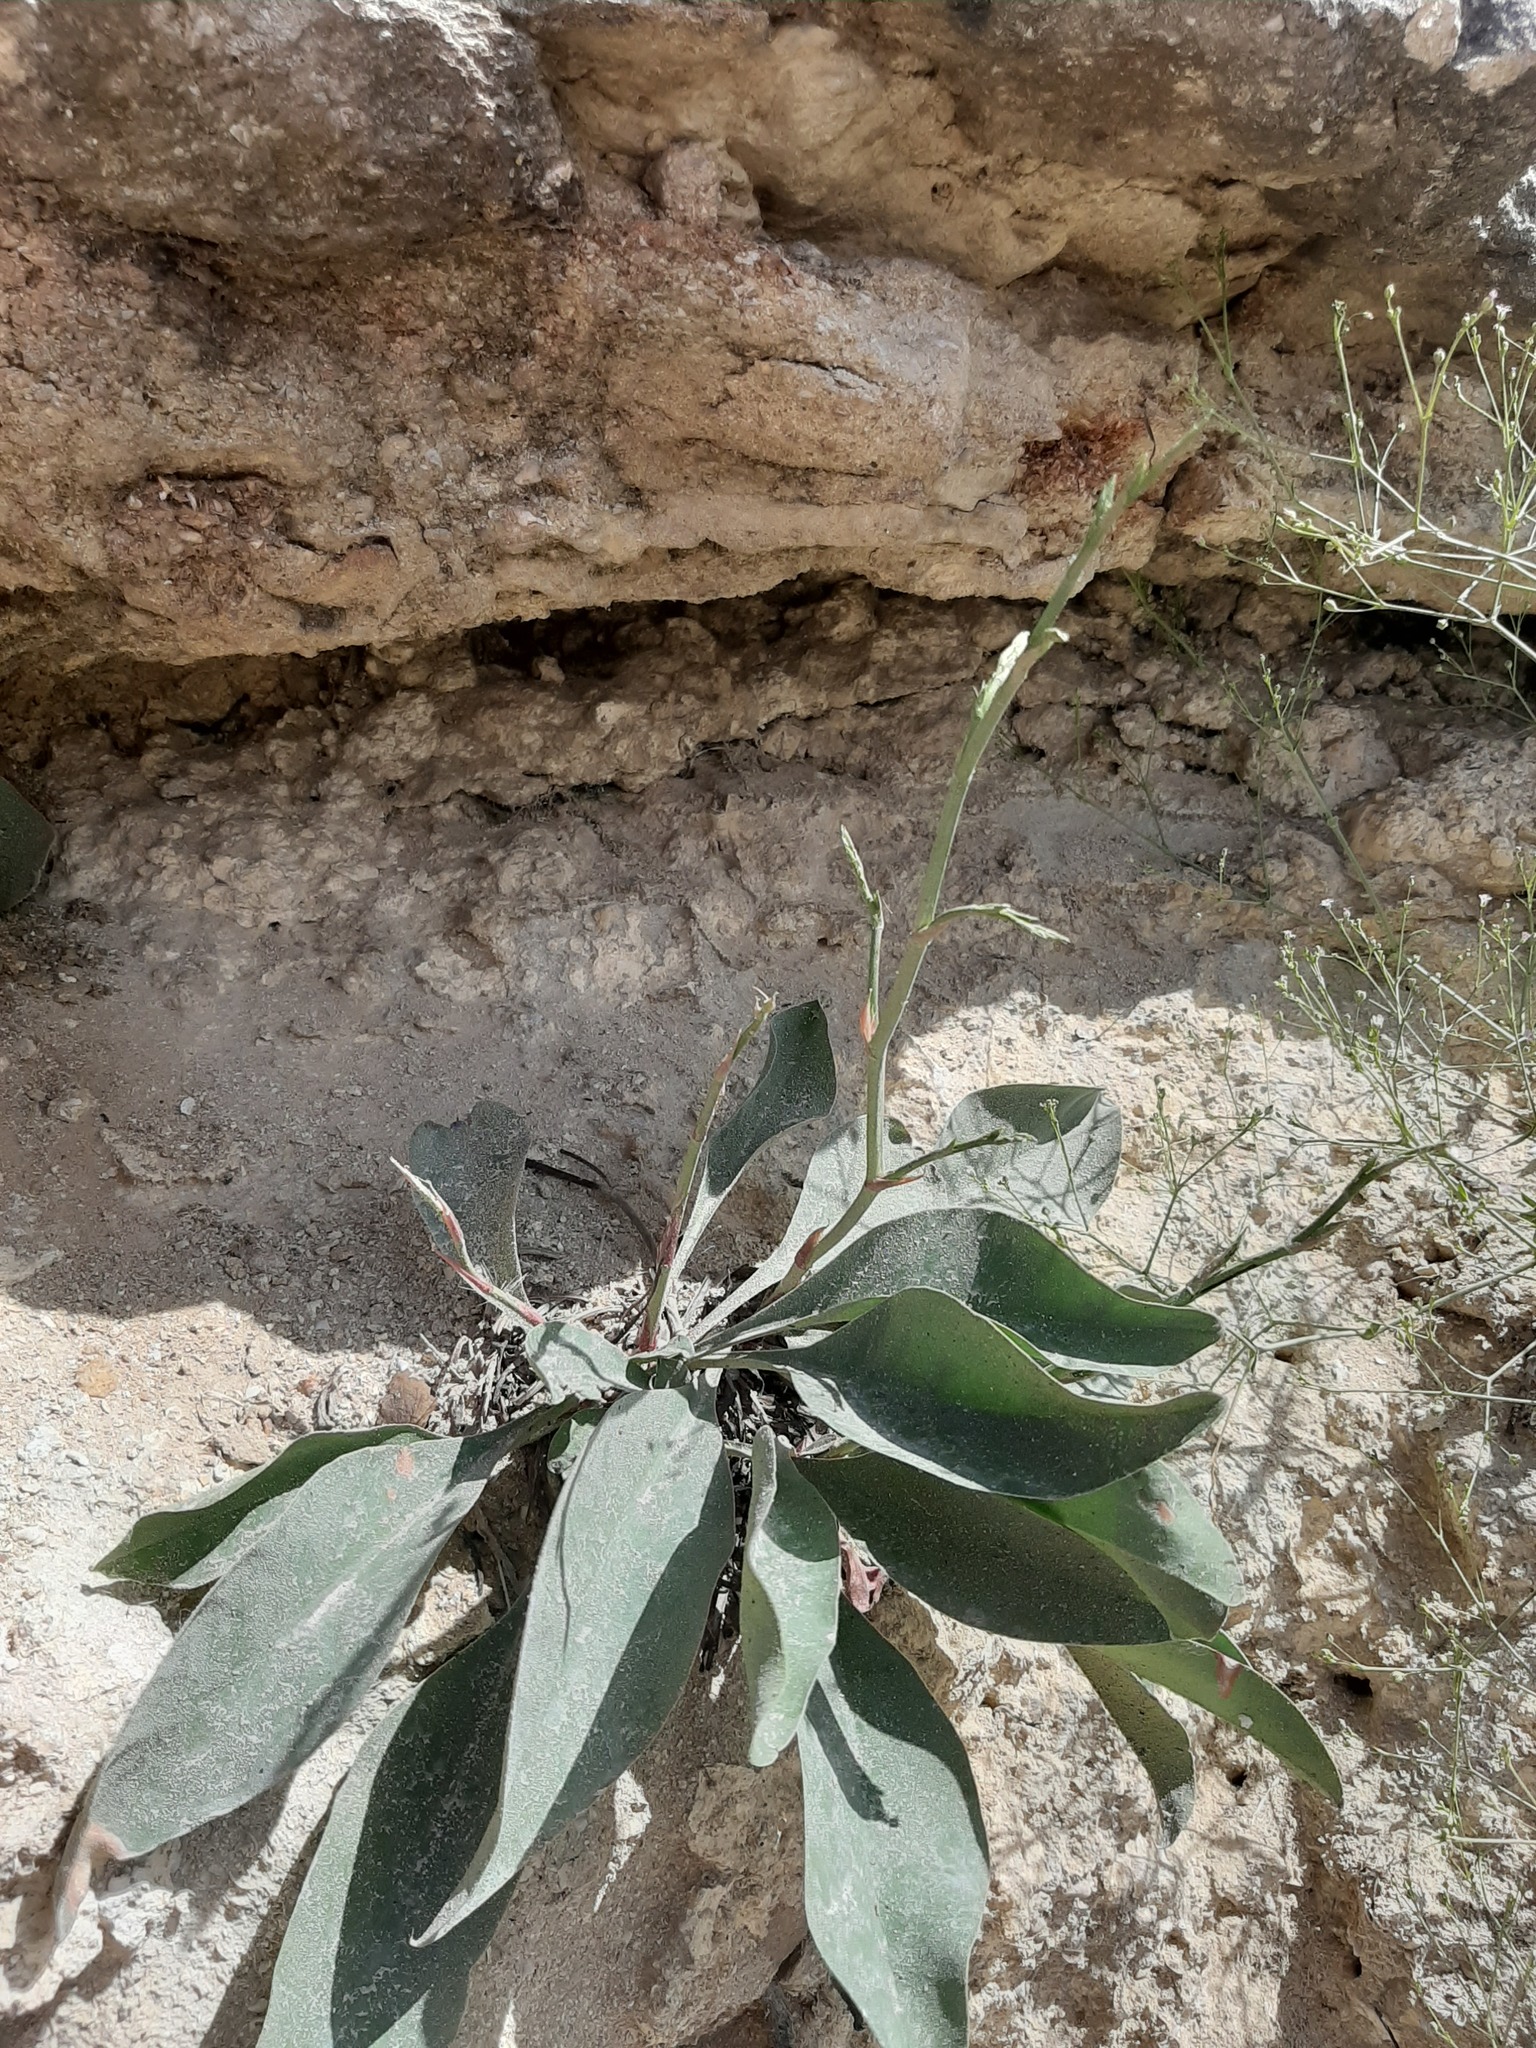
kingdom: Plantae
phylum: Tracheophyta
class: Magnoliopsida
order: Caryophyllales
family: Plumbaginaceae
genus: Limonium
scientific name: Limonium platyphyllum
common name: Florist's sea lavender
